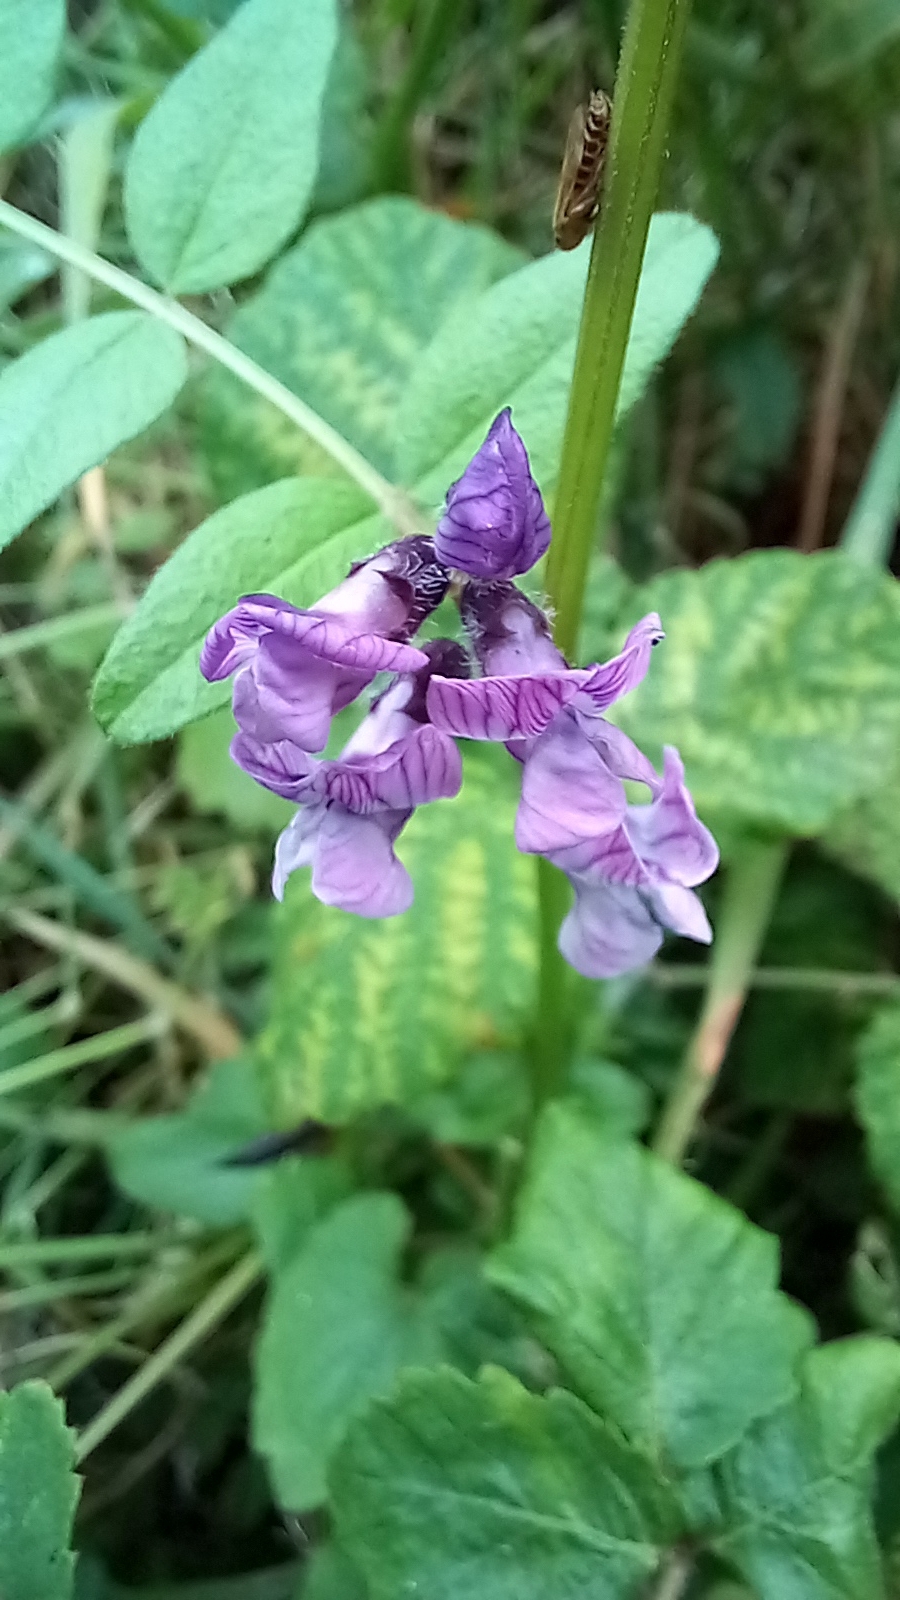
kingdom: Plantae
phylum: Tracheophyta
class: Magnoliopsida
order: Fabales
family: Fabaceae
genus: Vicia
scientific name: Vicia sepium
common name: Bush vetch
